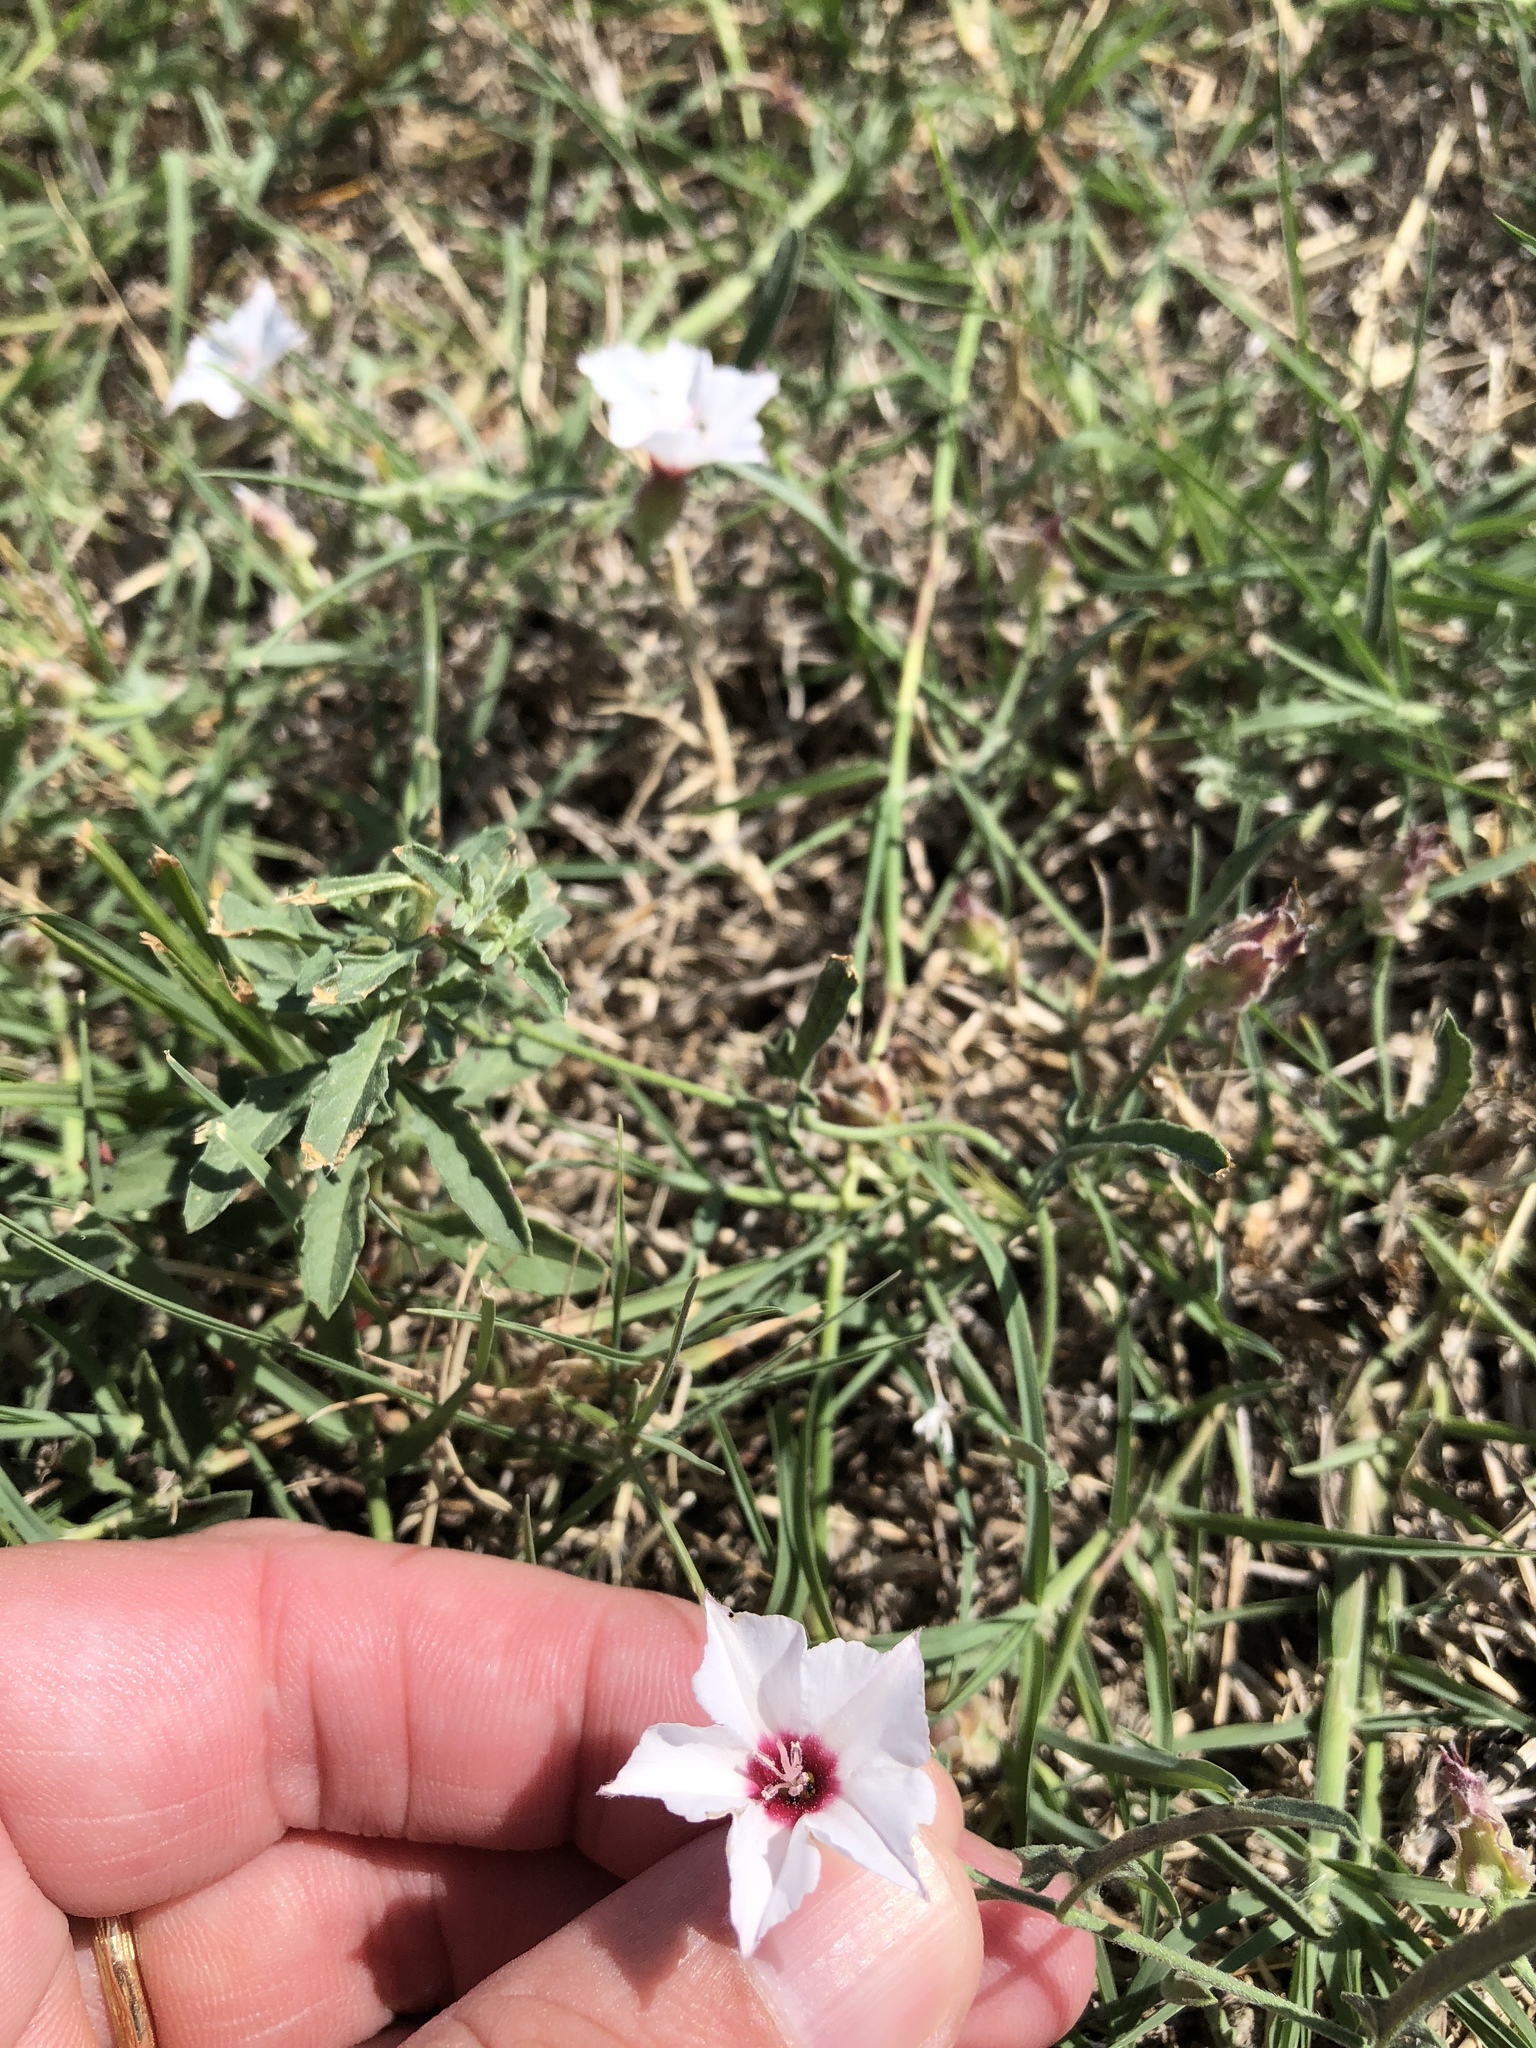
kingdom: Plantae
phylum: Tracheophyta
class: Magnoliopsida
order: Solanales
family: Convolvulaceae
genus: Convolvulus
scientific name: Convolvulus equitans
